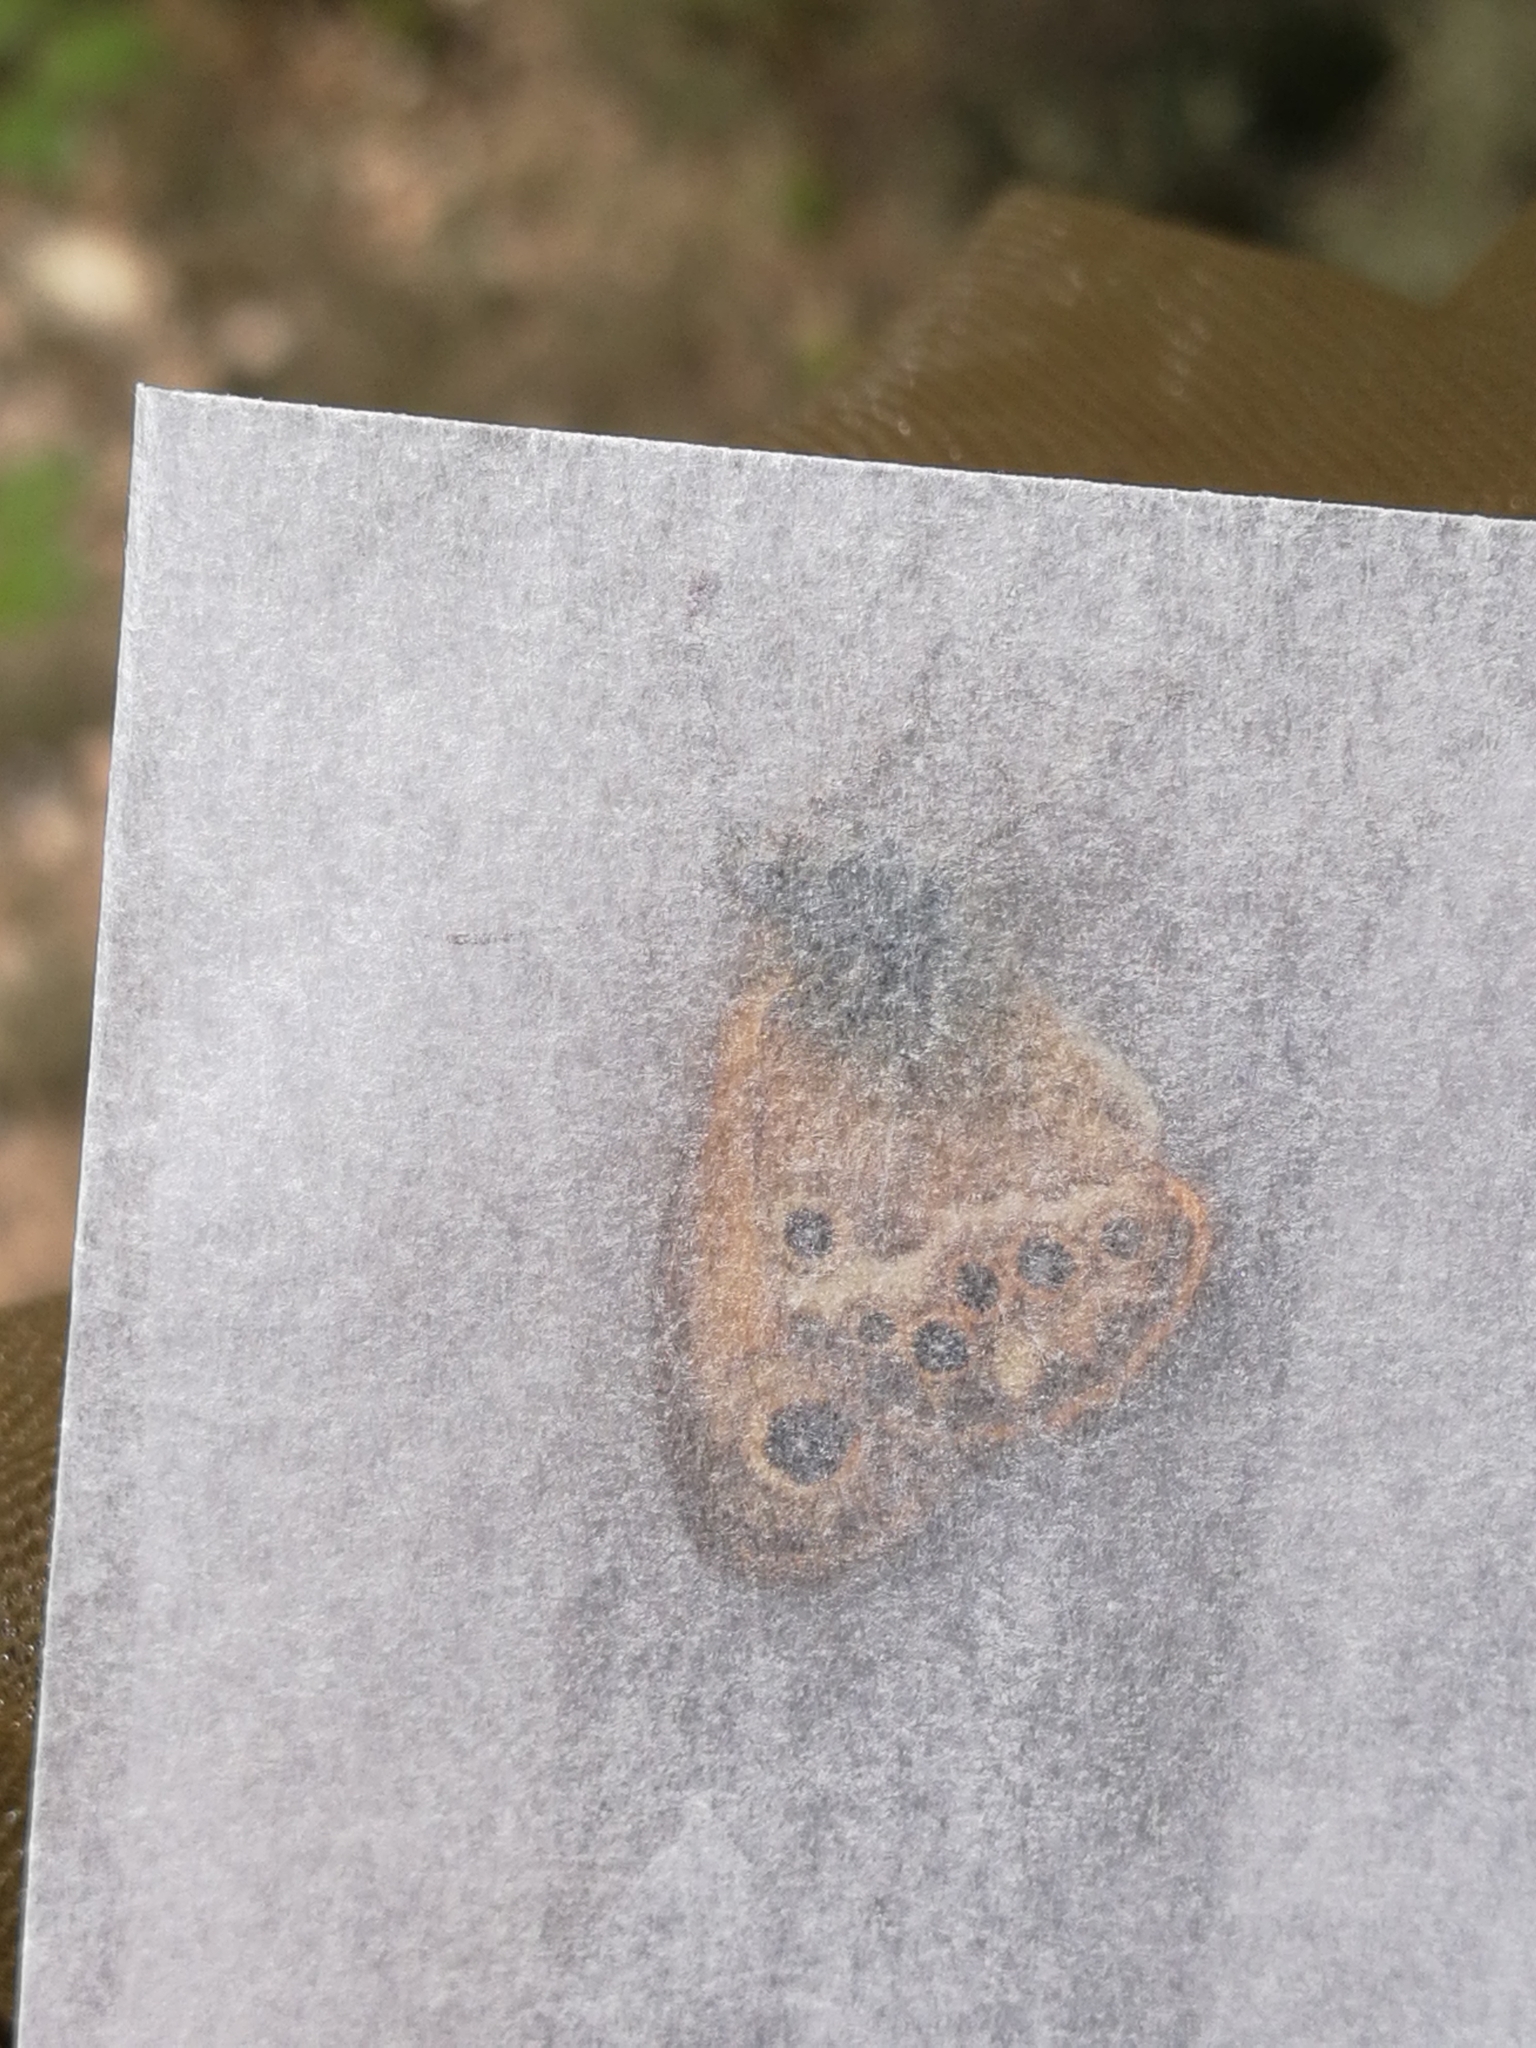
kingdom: Animalia
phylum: Arthropoda
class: Insecta
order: Lepidoptera
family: Nymphalidae
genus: Coenonympha
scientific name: Coenonympha dorus
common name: Dusky heath
